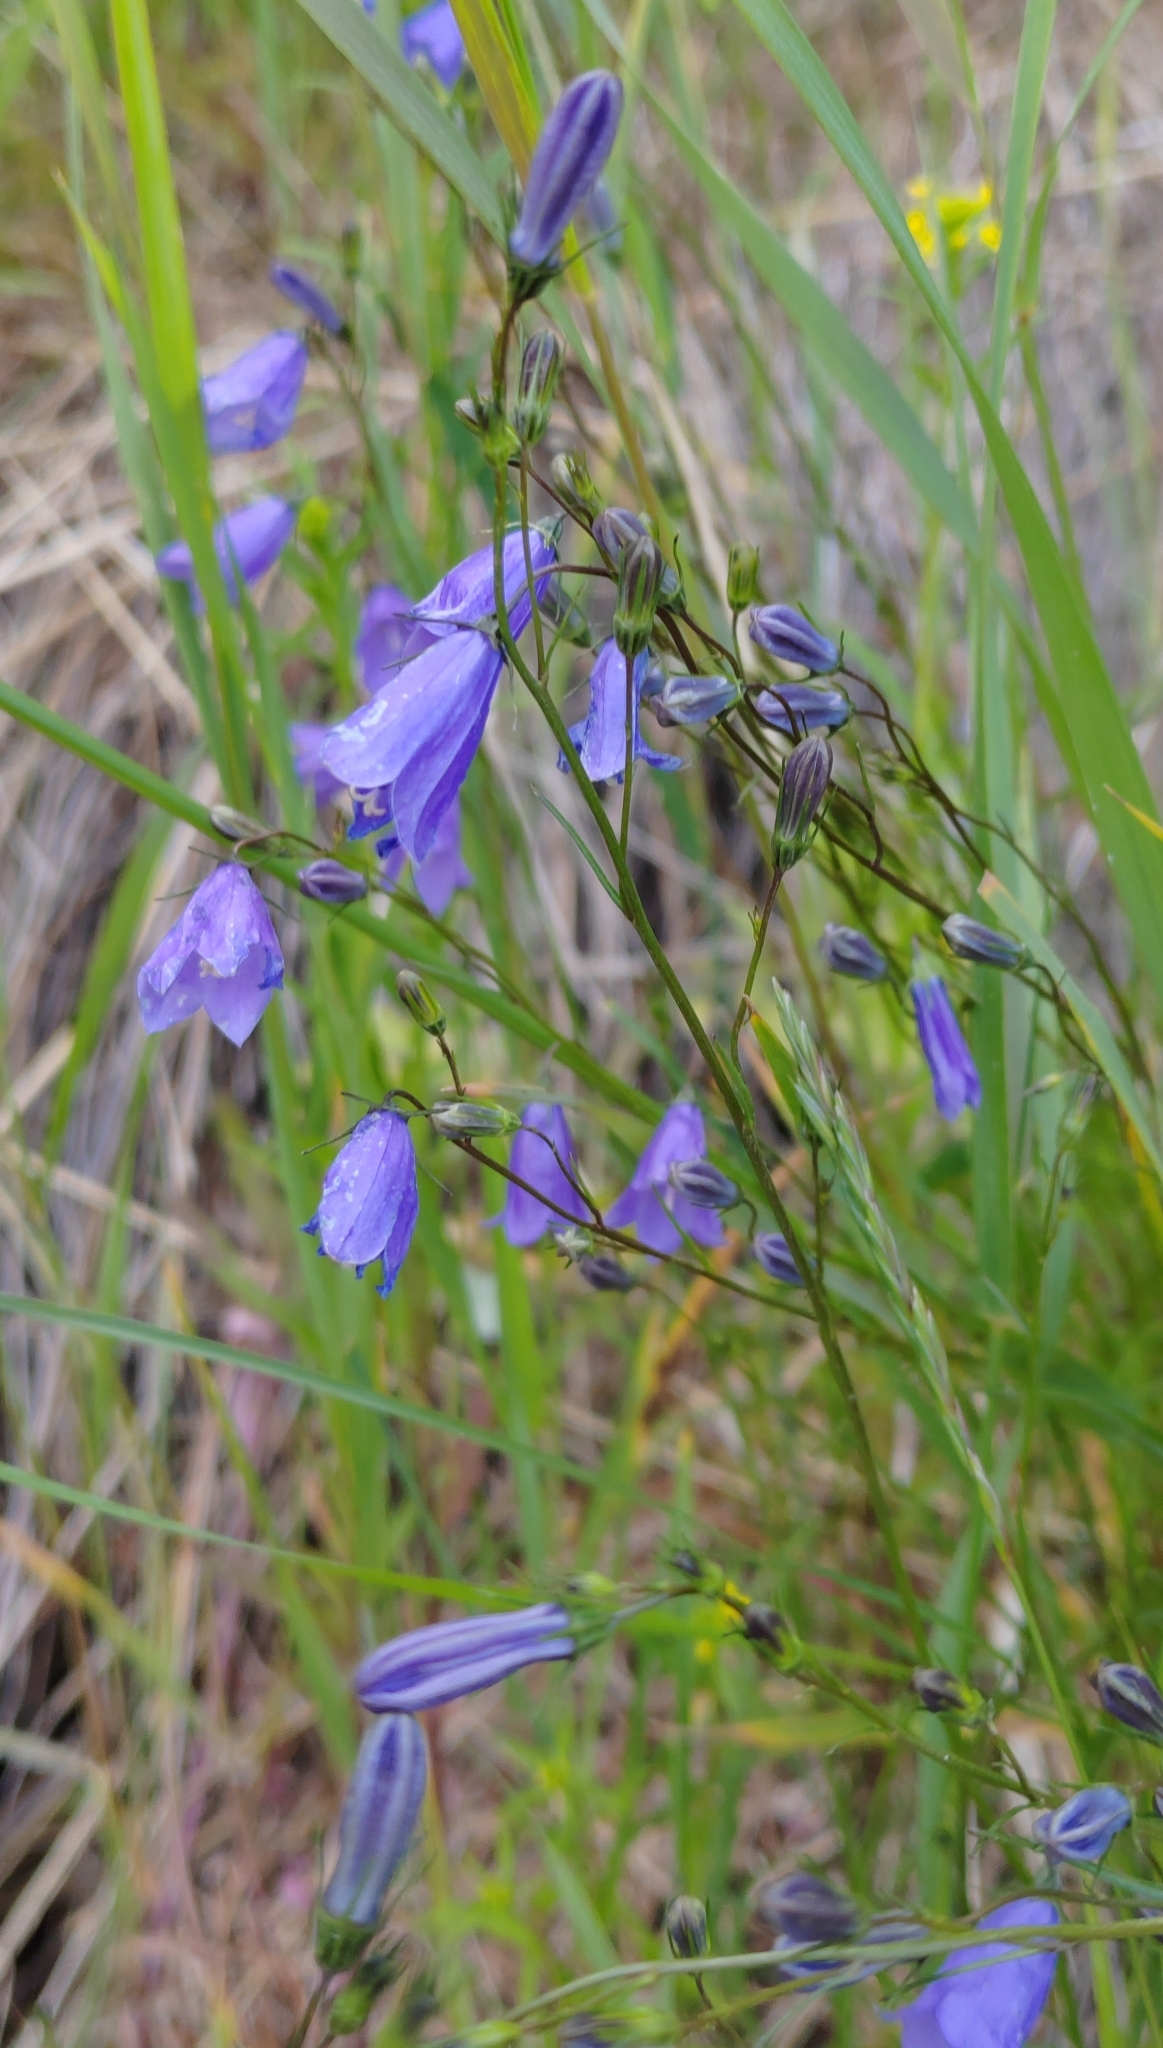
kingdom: Plantae
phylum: Tracheophyta
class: Magnoliopsida
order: Asterales
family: Campanulaceae
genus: Campanula
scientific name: Campanula rotundifolia
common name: Harebell
